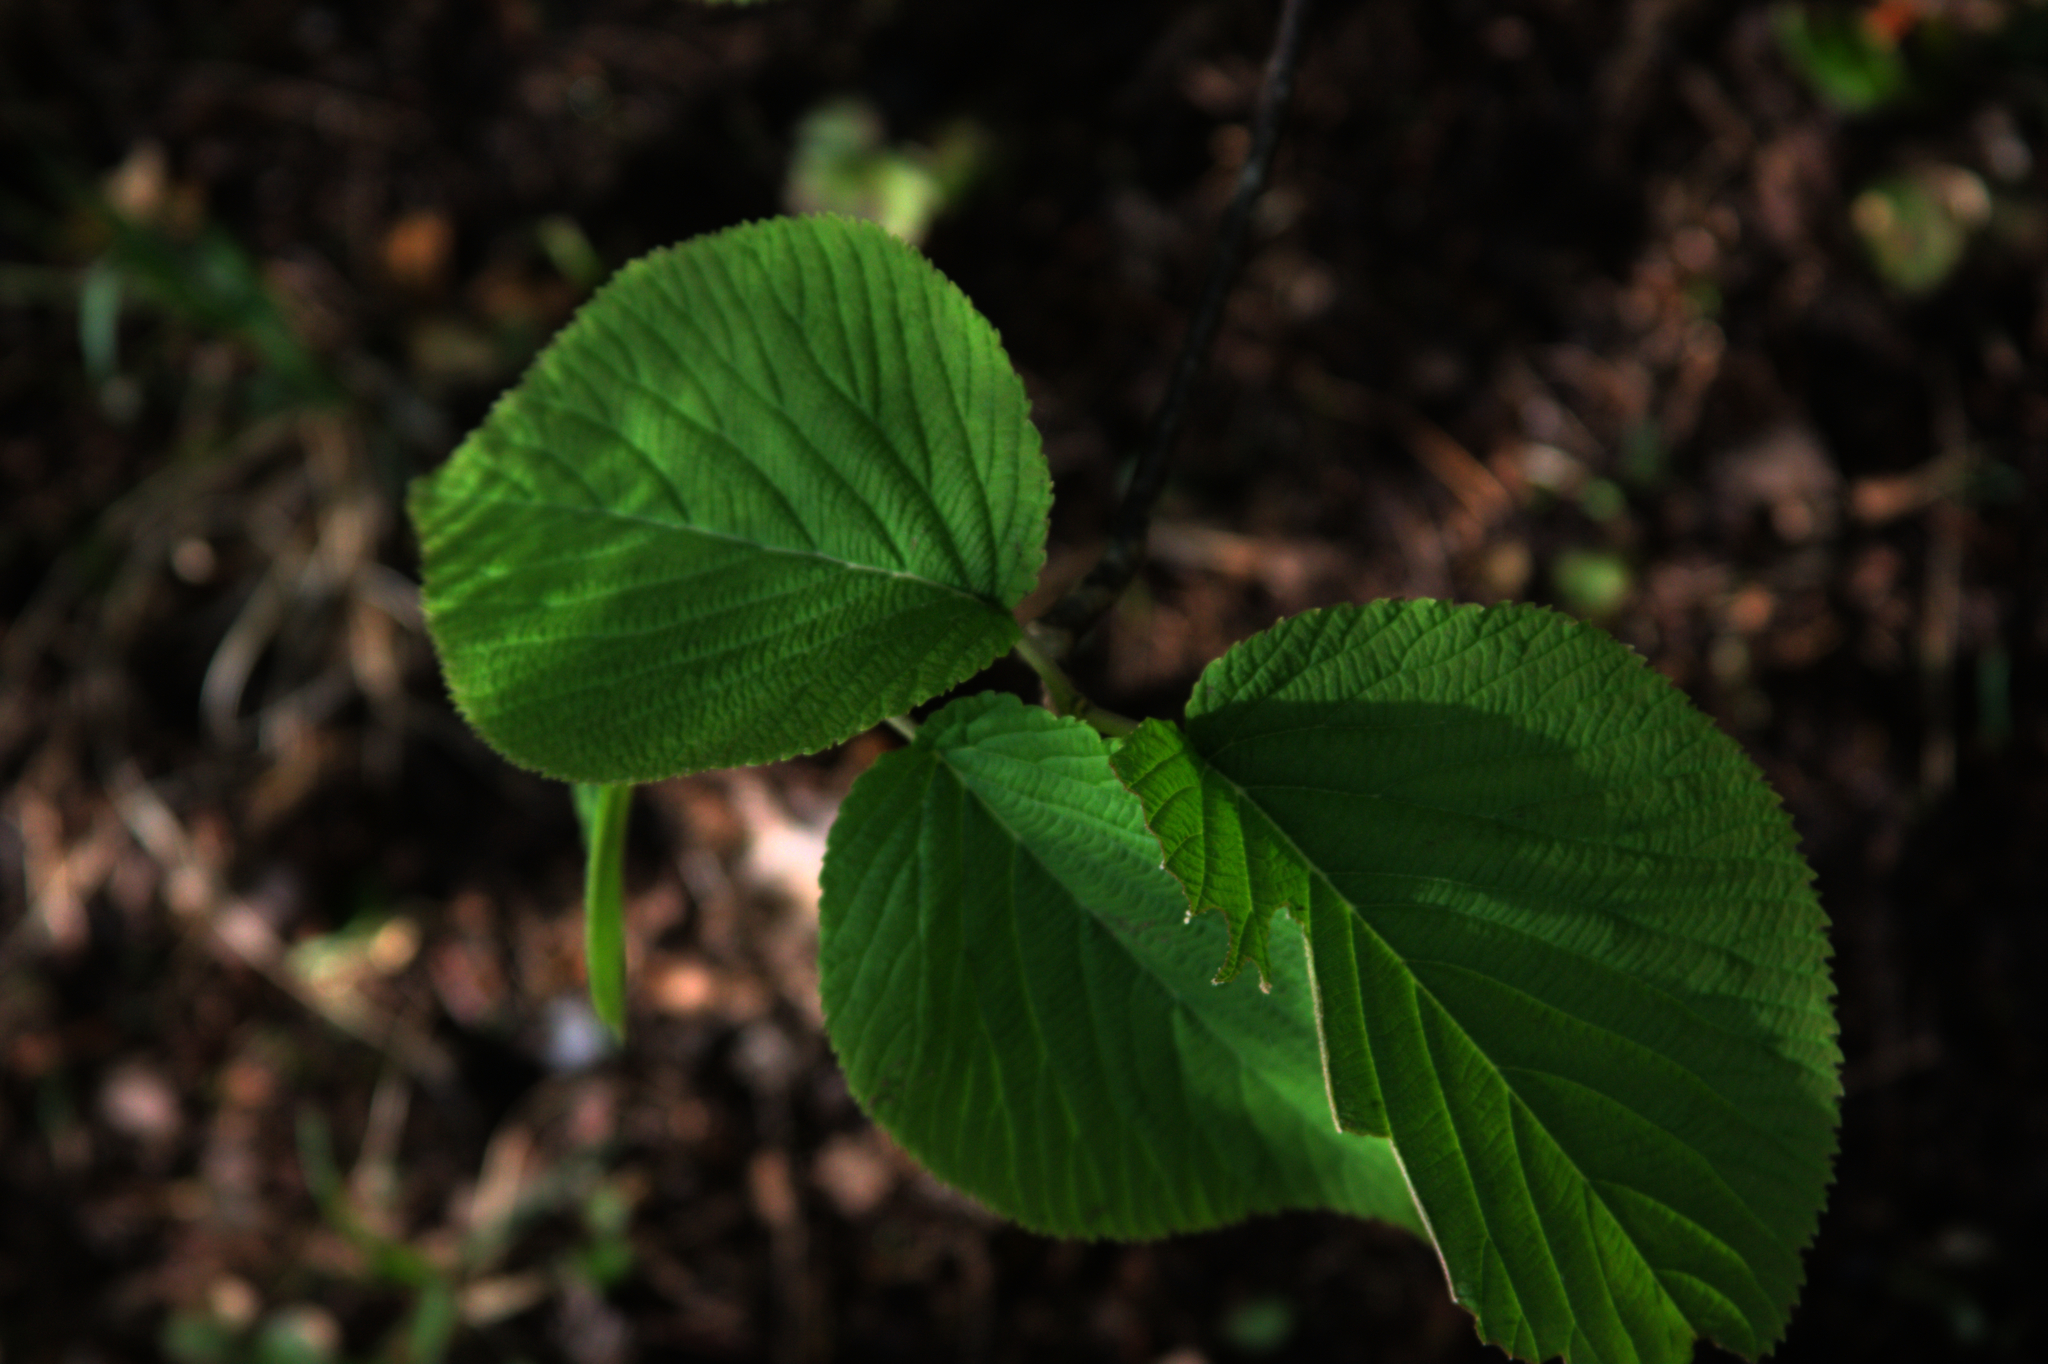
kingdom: Plantae
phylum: Tracheophyta
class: Magnoliopsida
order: Dipsacales
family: Viburnaceae
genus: Viburnum
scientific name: Viburnum lantanoides
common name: Hobblebush
